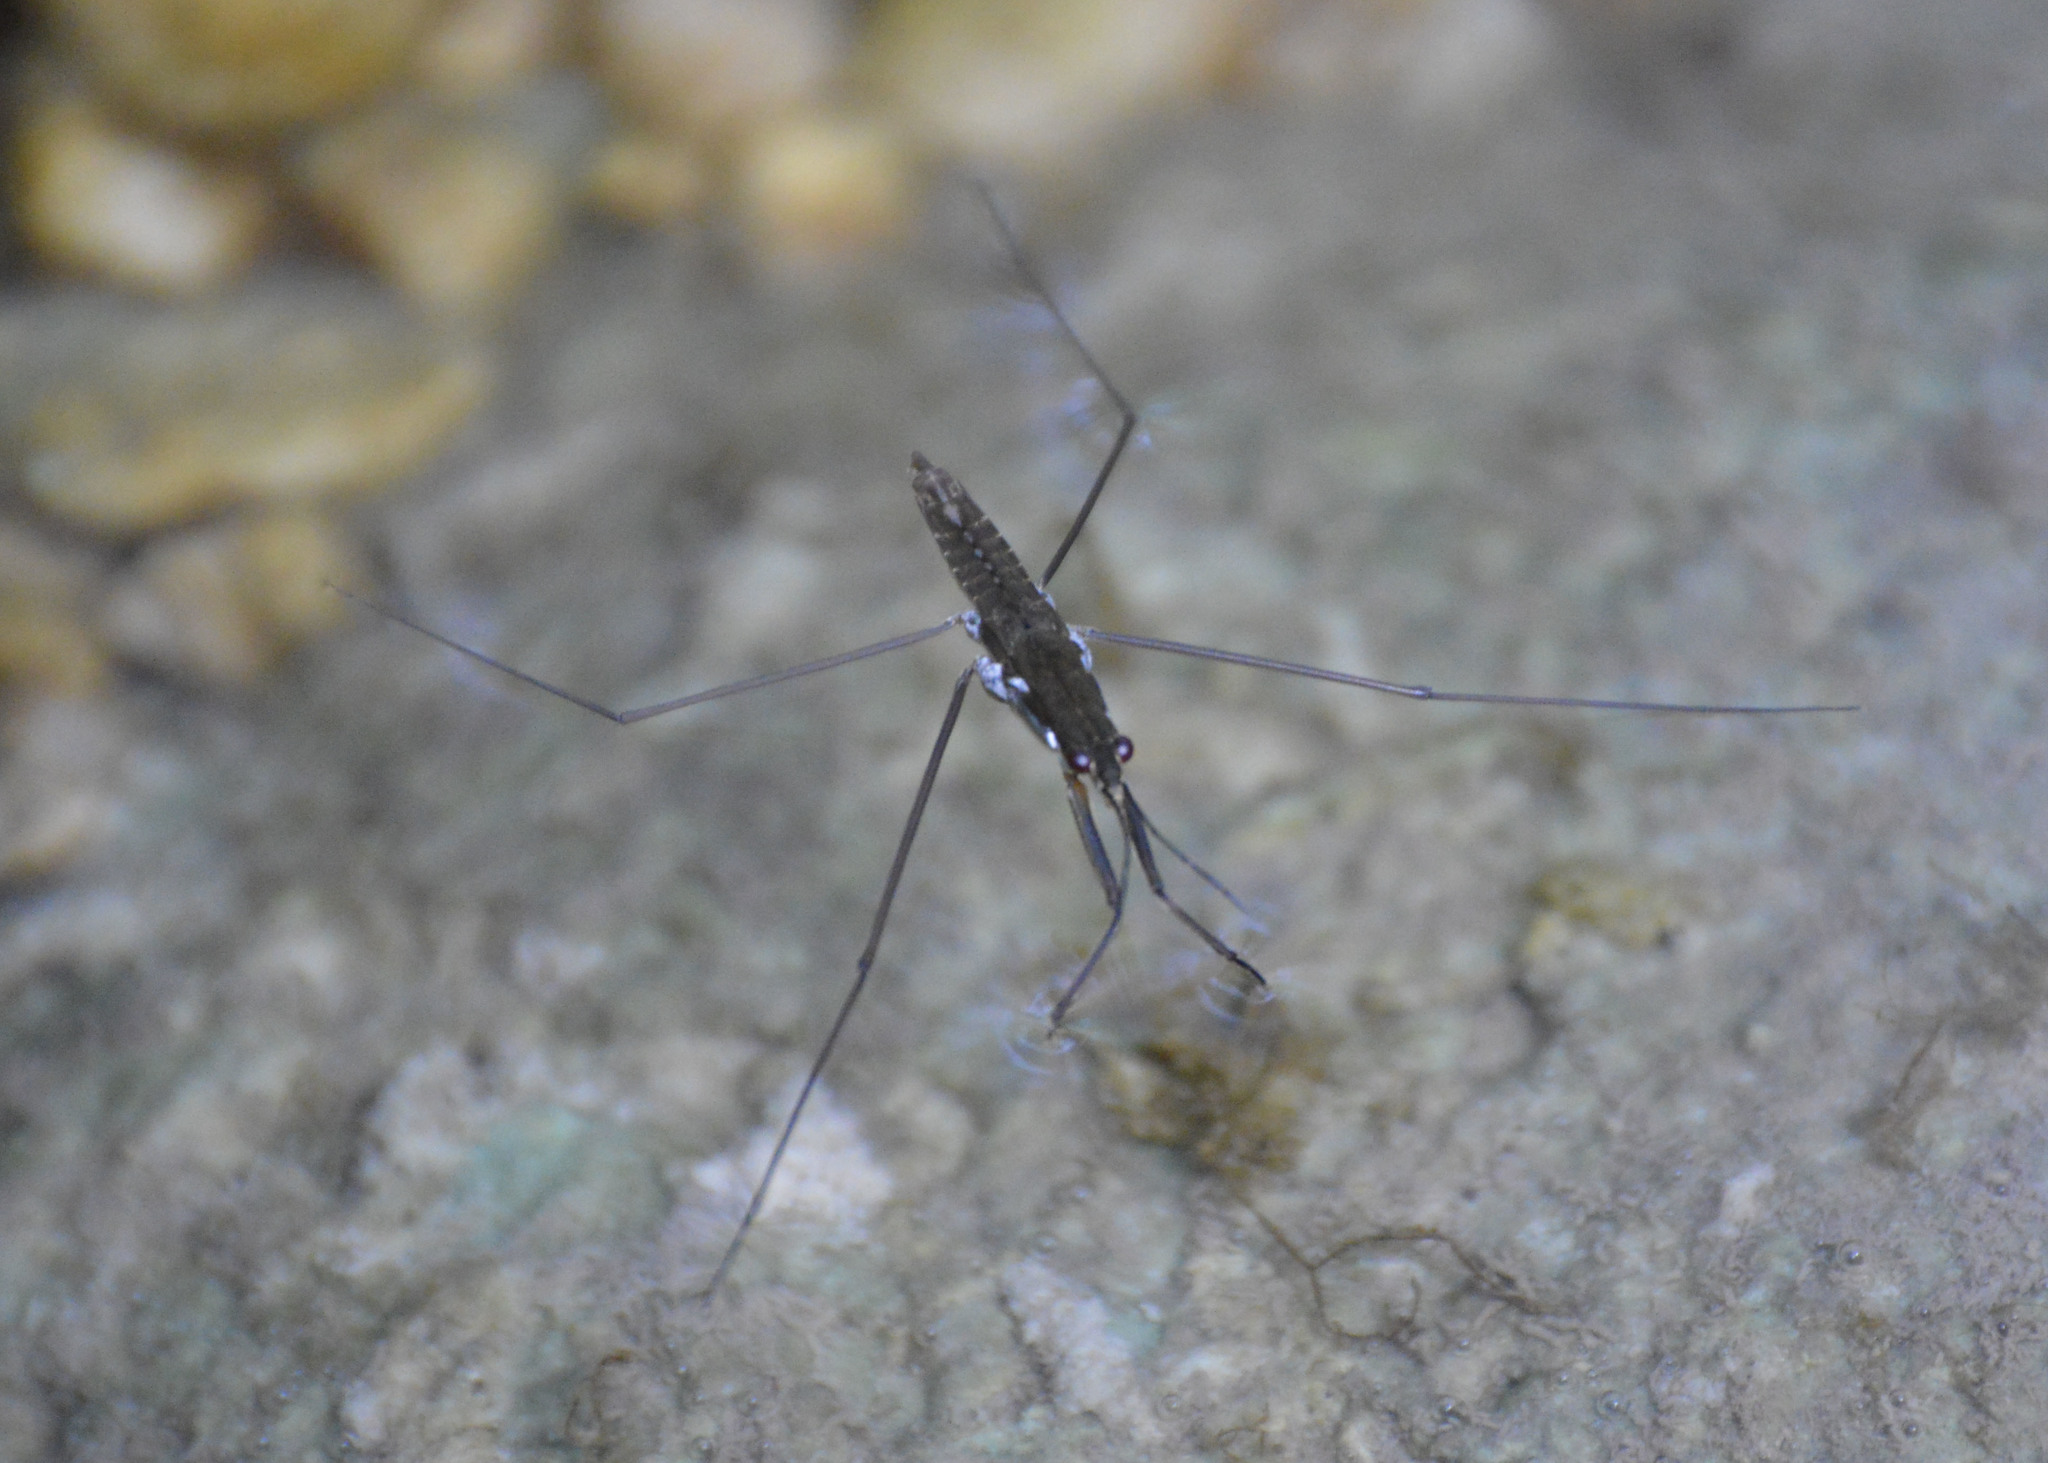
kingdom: Animalia
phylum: Arthropoda
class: Insecta
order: Hemiptera
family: Gerridae
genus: Aquarius
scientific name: Aquarius remigis
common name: Common water strider
